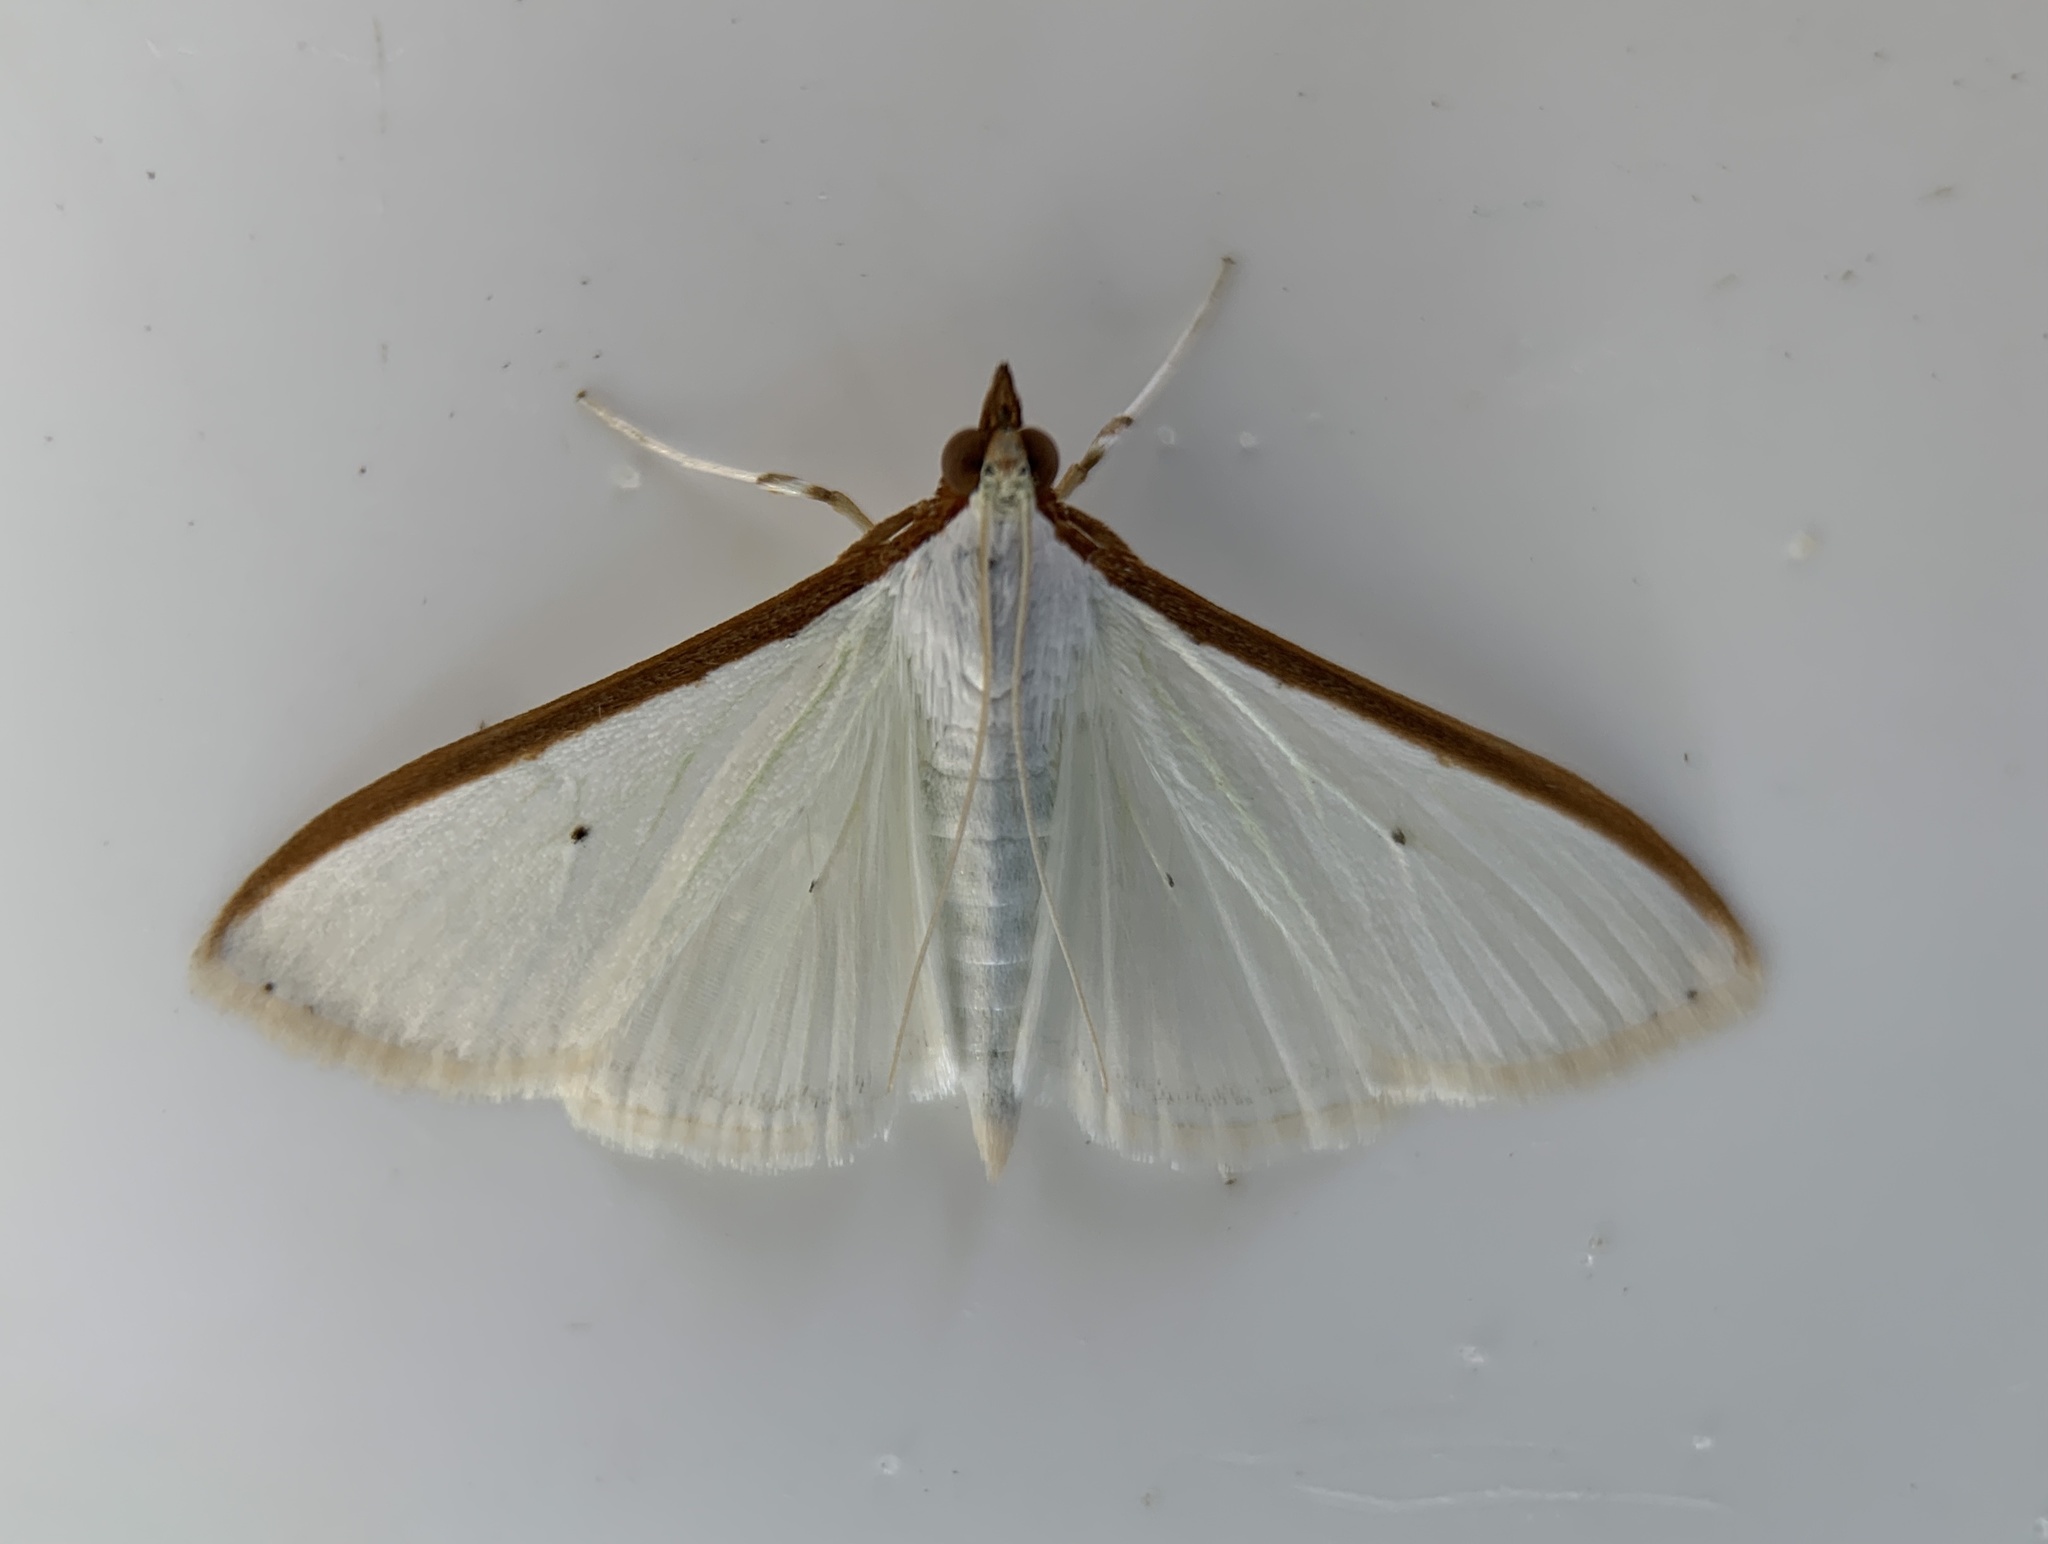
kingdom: Animalia
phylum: Arthropoda
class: Insecta
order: Lepidoptera
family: Crambidae
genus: Palpita
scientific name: Palpita quadristigmalis
